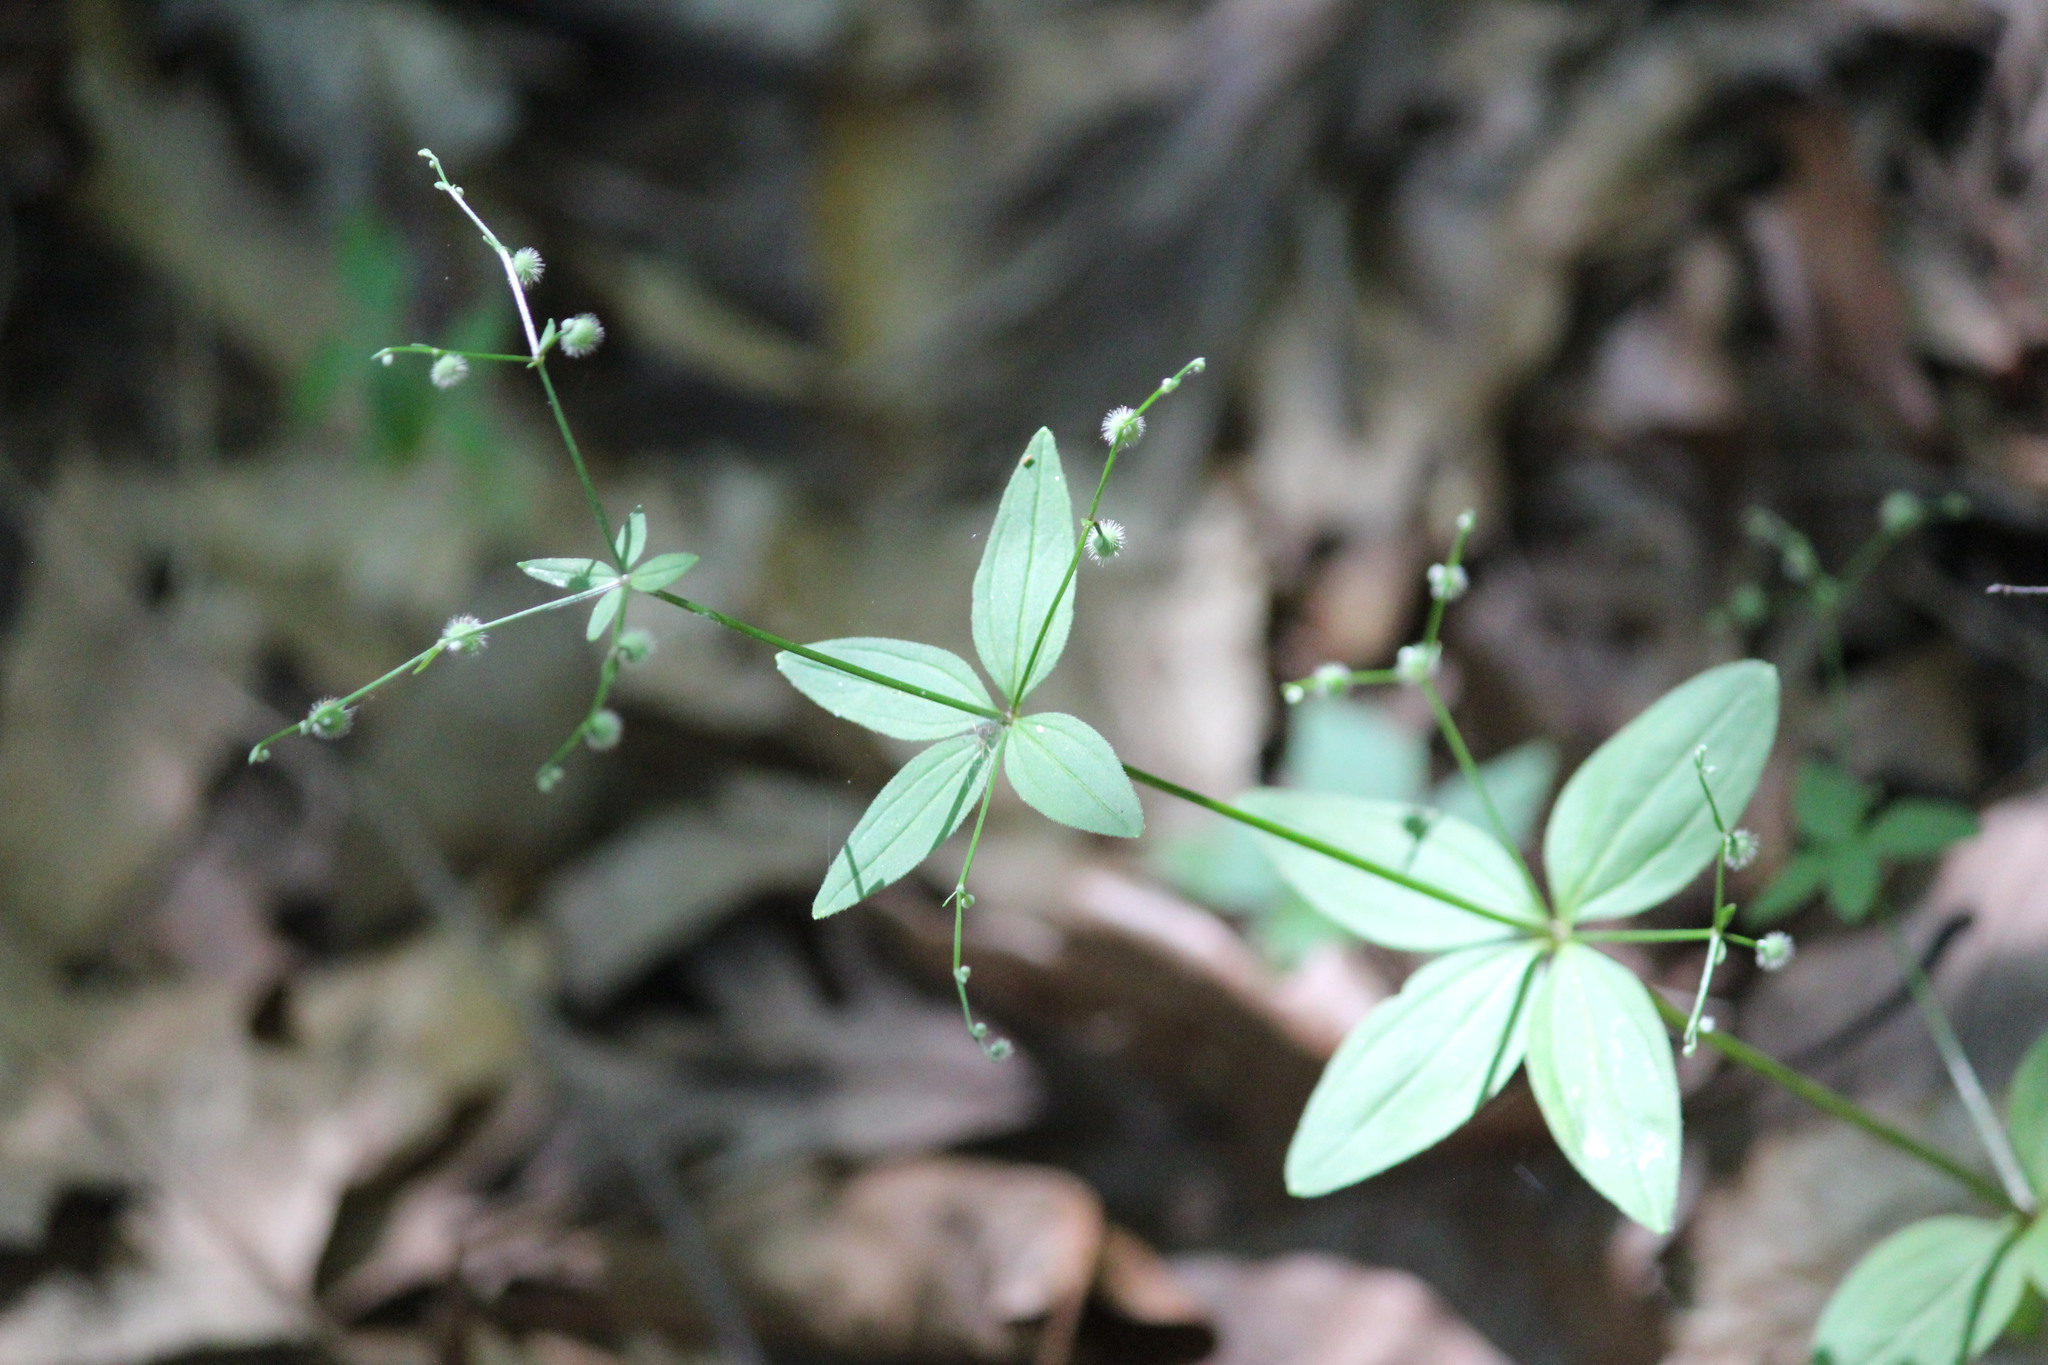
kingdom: Plantae
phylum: Tracheophyta
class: Magnoliopsida
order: Gentianales
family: Rubiaceae
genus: Galium
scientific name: Galium circaezans
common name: Forest bedstraw
